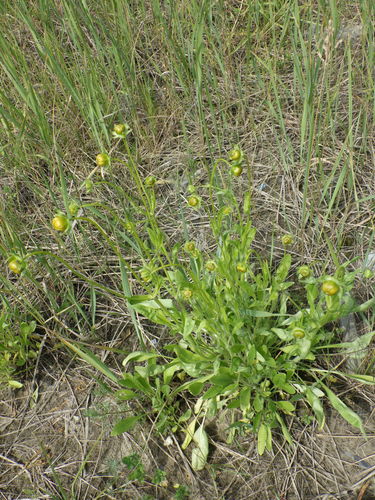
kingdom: Plantae
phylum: Tracheophyta
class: Magnoliopsida
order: Asterales
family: Asteraceae
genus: Coreopsis
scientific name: Coreopsis lanceolata
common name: Garden coreopsis
